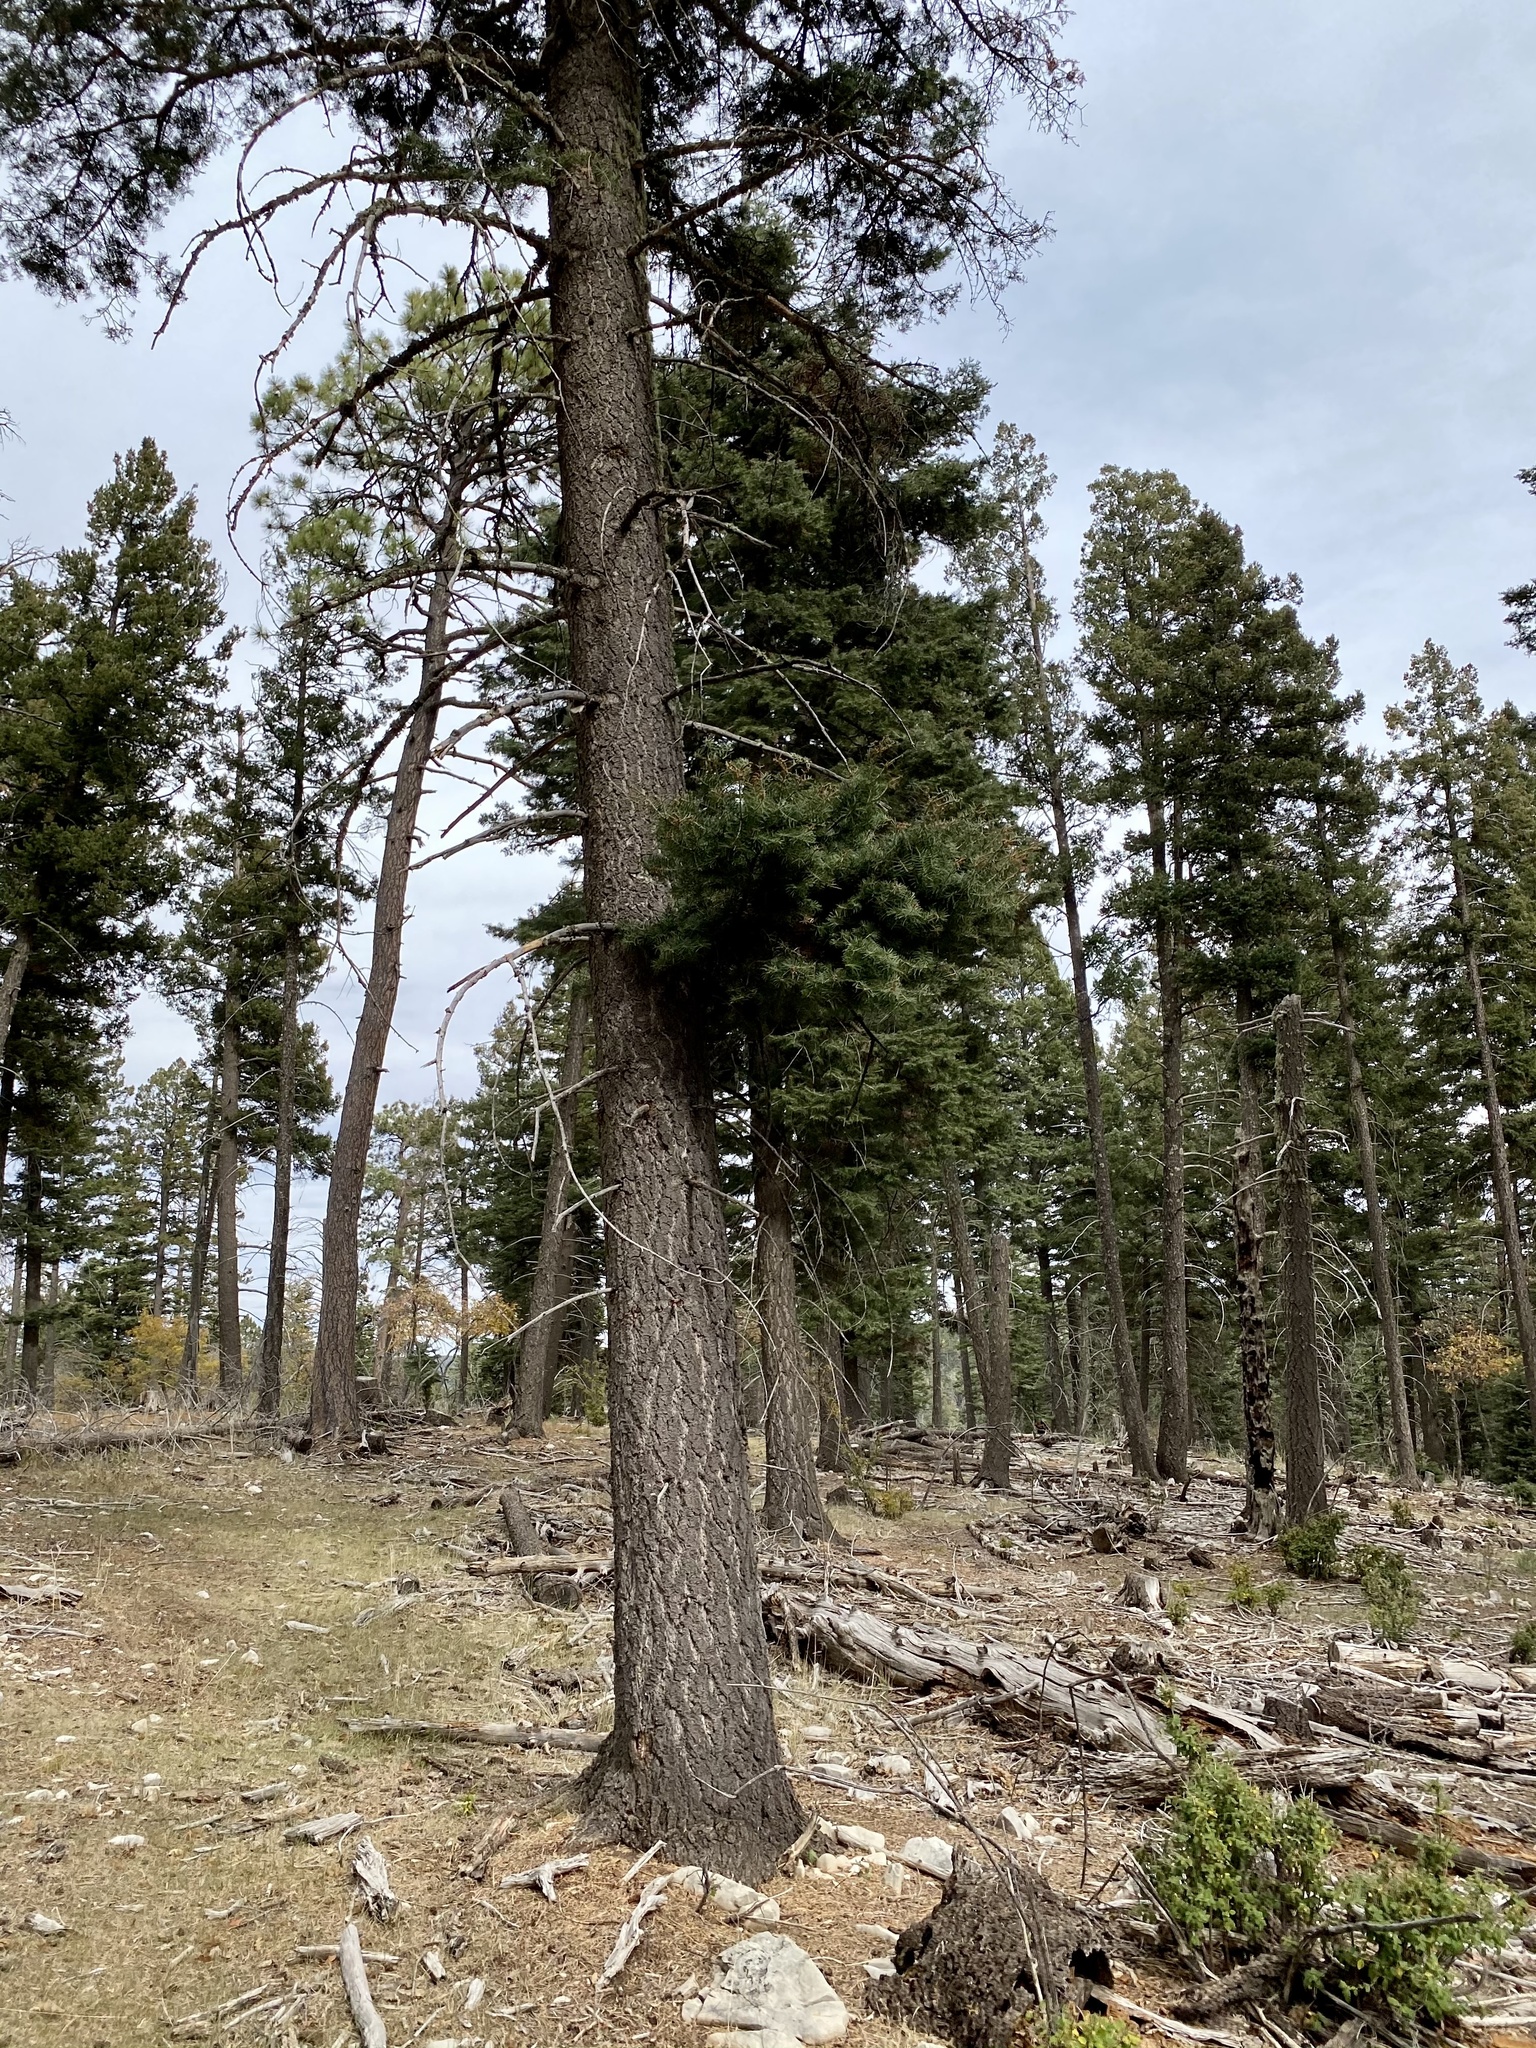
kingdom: Plantae
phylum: Tracheophyta
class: Pinopsida
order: Pinales
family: Pinaceae
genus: Abies
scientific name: Abies concolor
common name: Colorado fir
